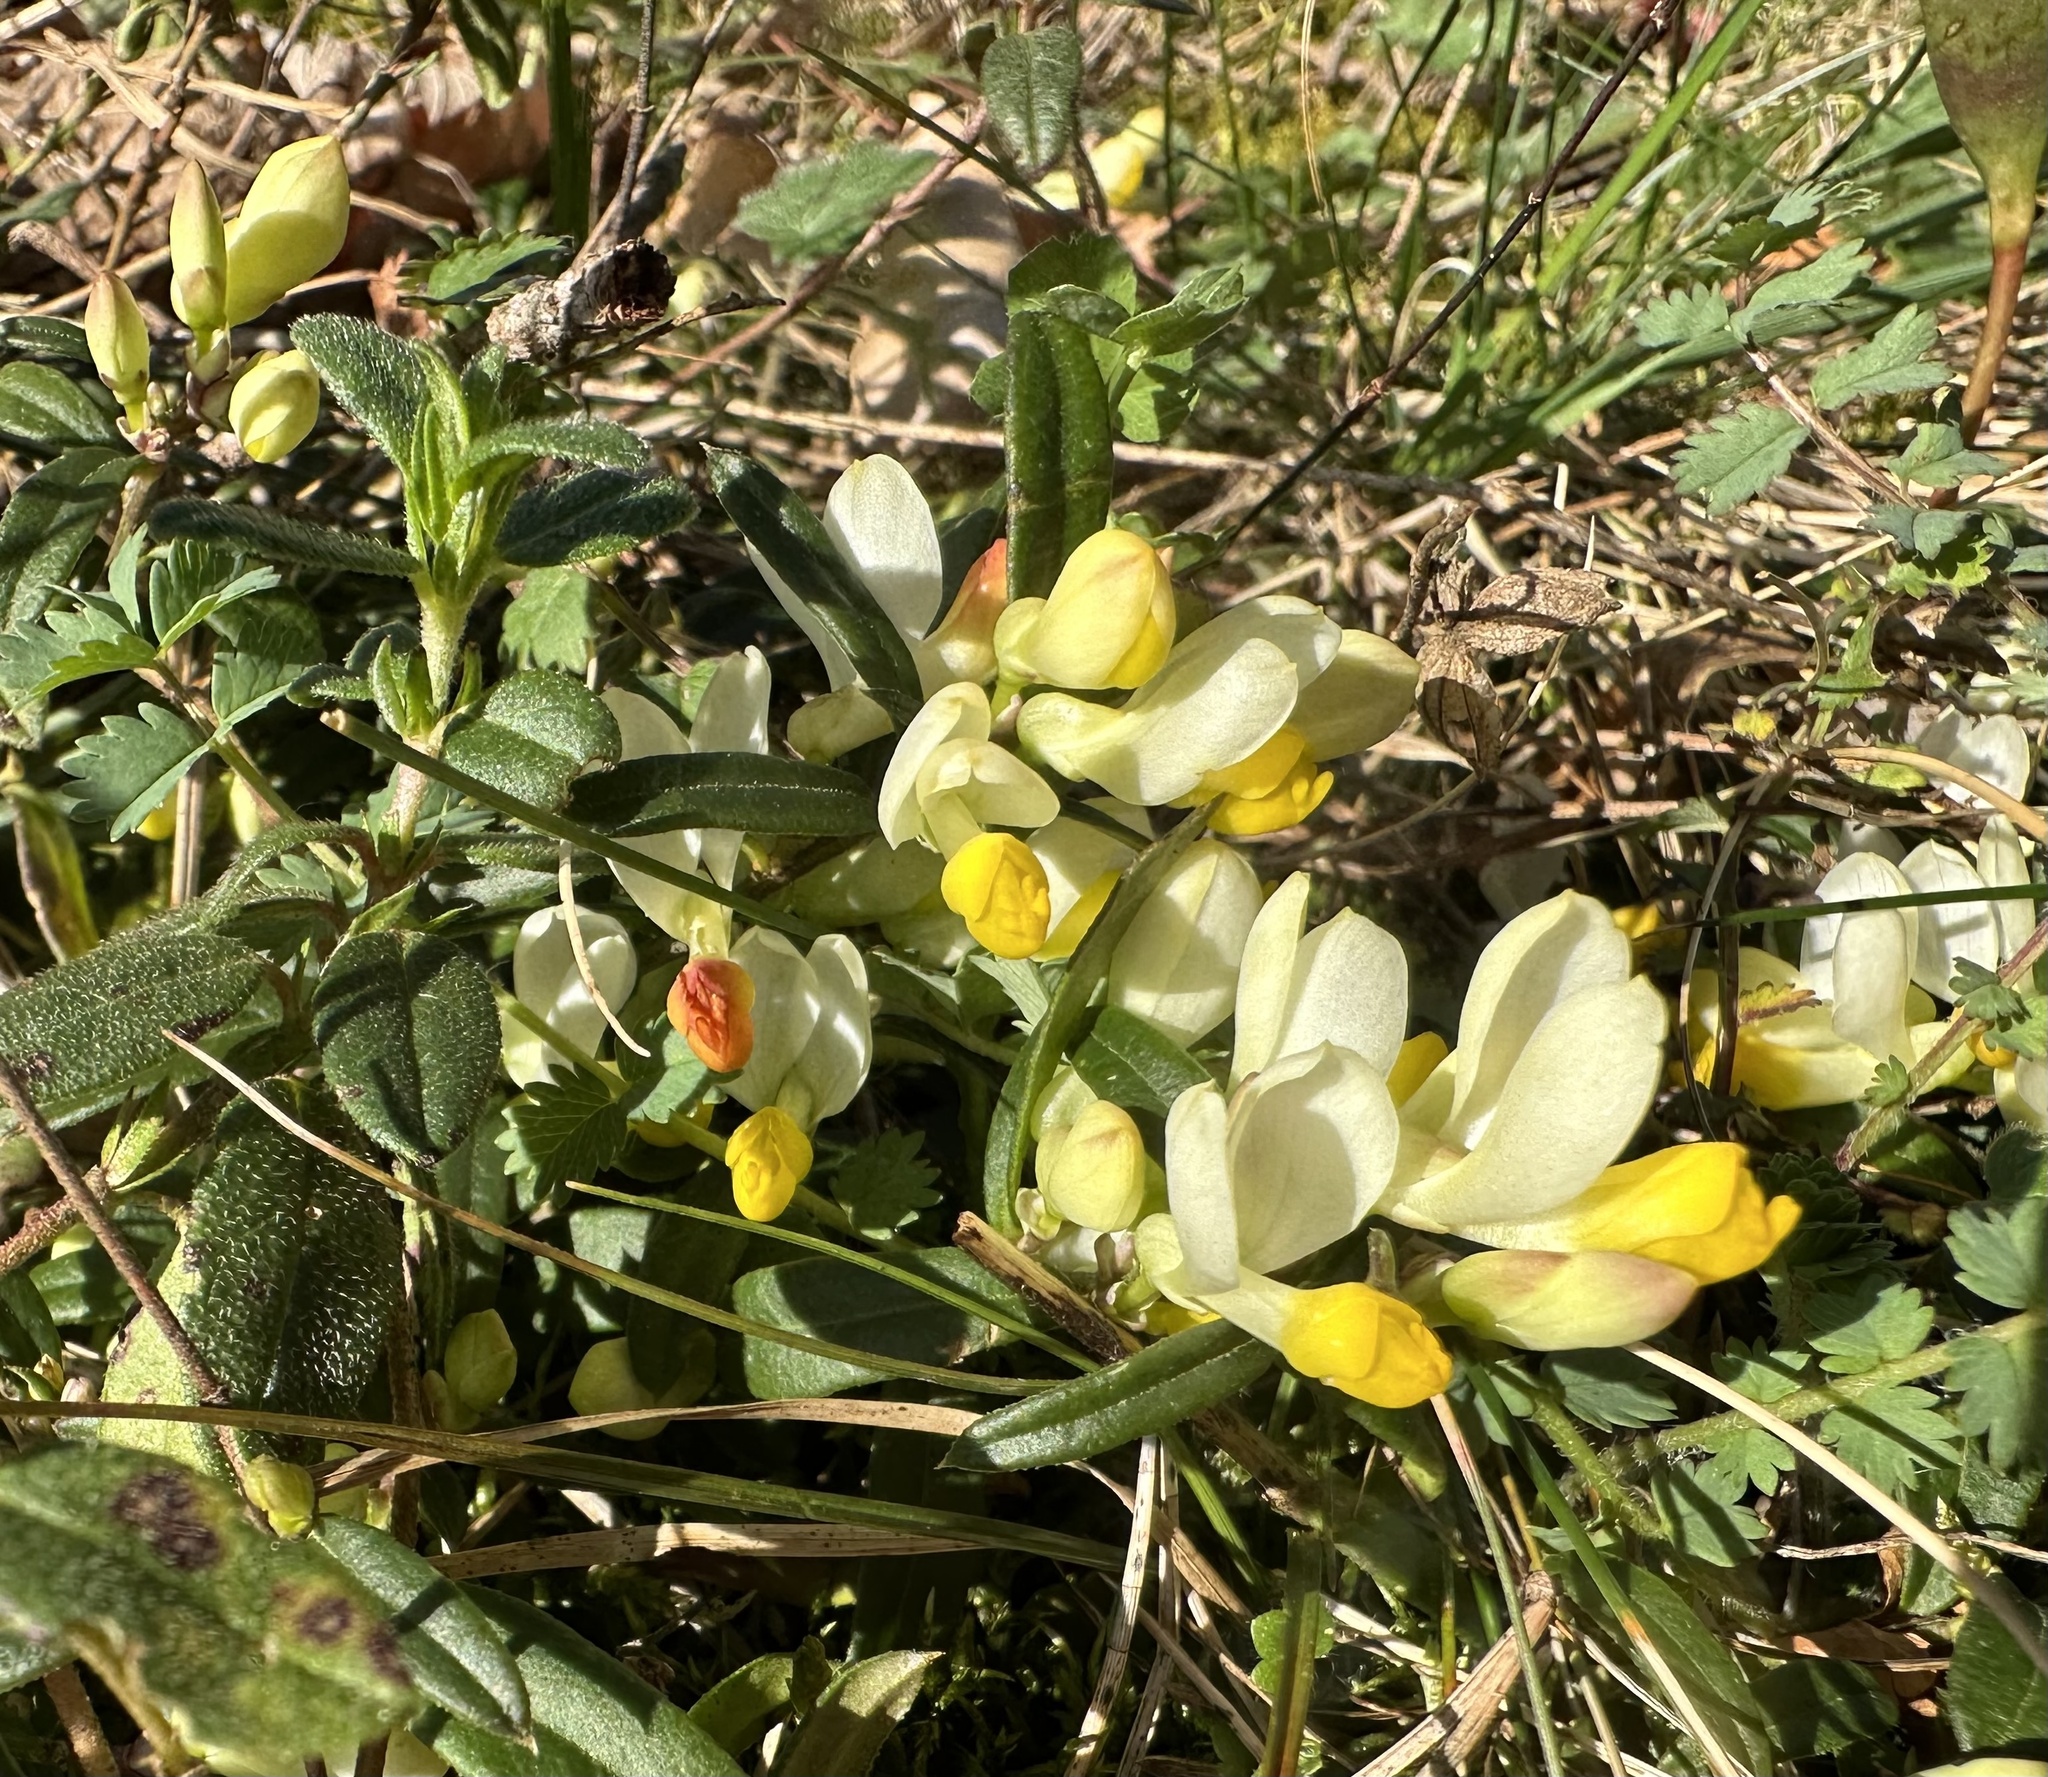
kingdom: Plantae
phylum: Tracheophyta
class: Magnoliopsida
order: Fabales
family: Polygalaceae
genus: Polygaloides
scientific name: Polygaloides chamaebuxus
